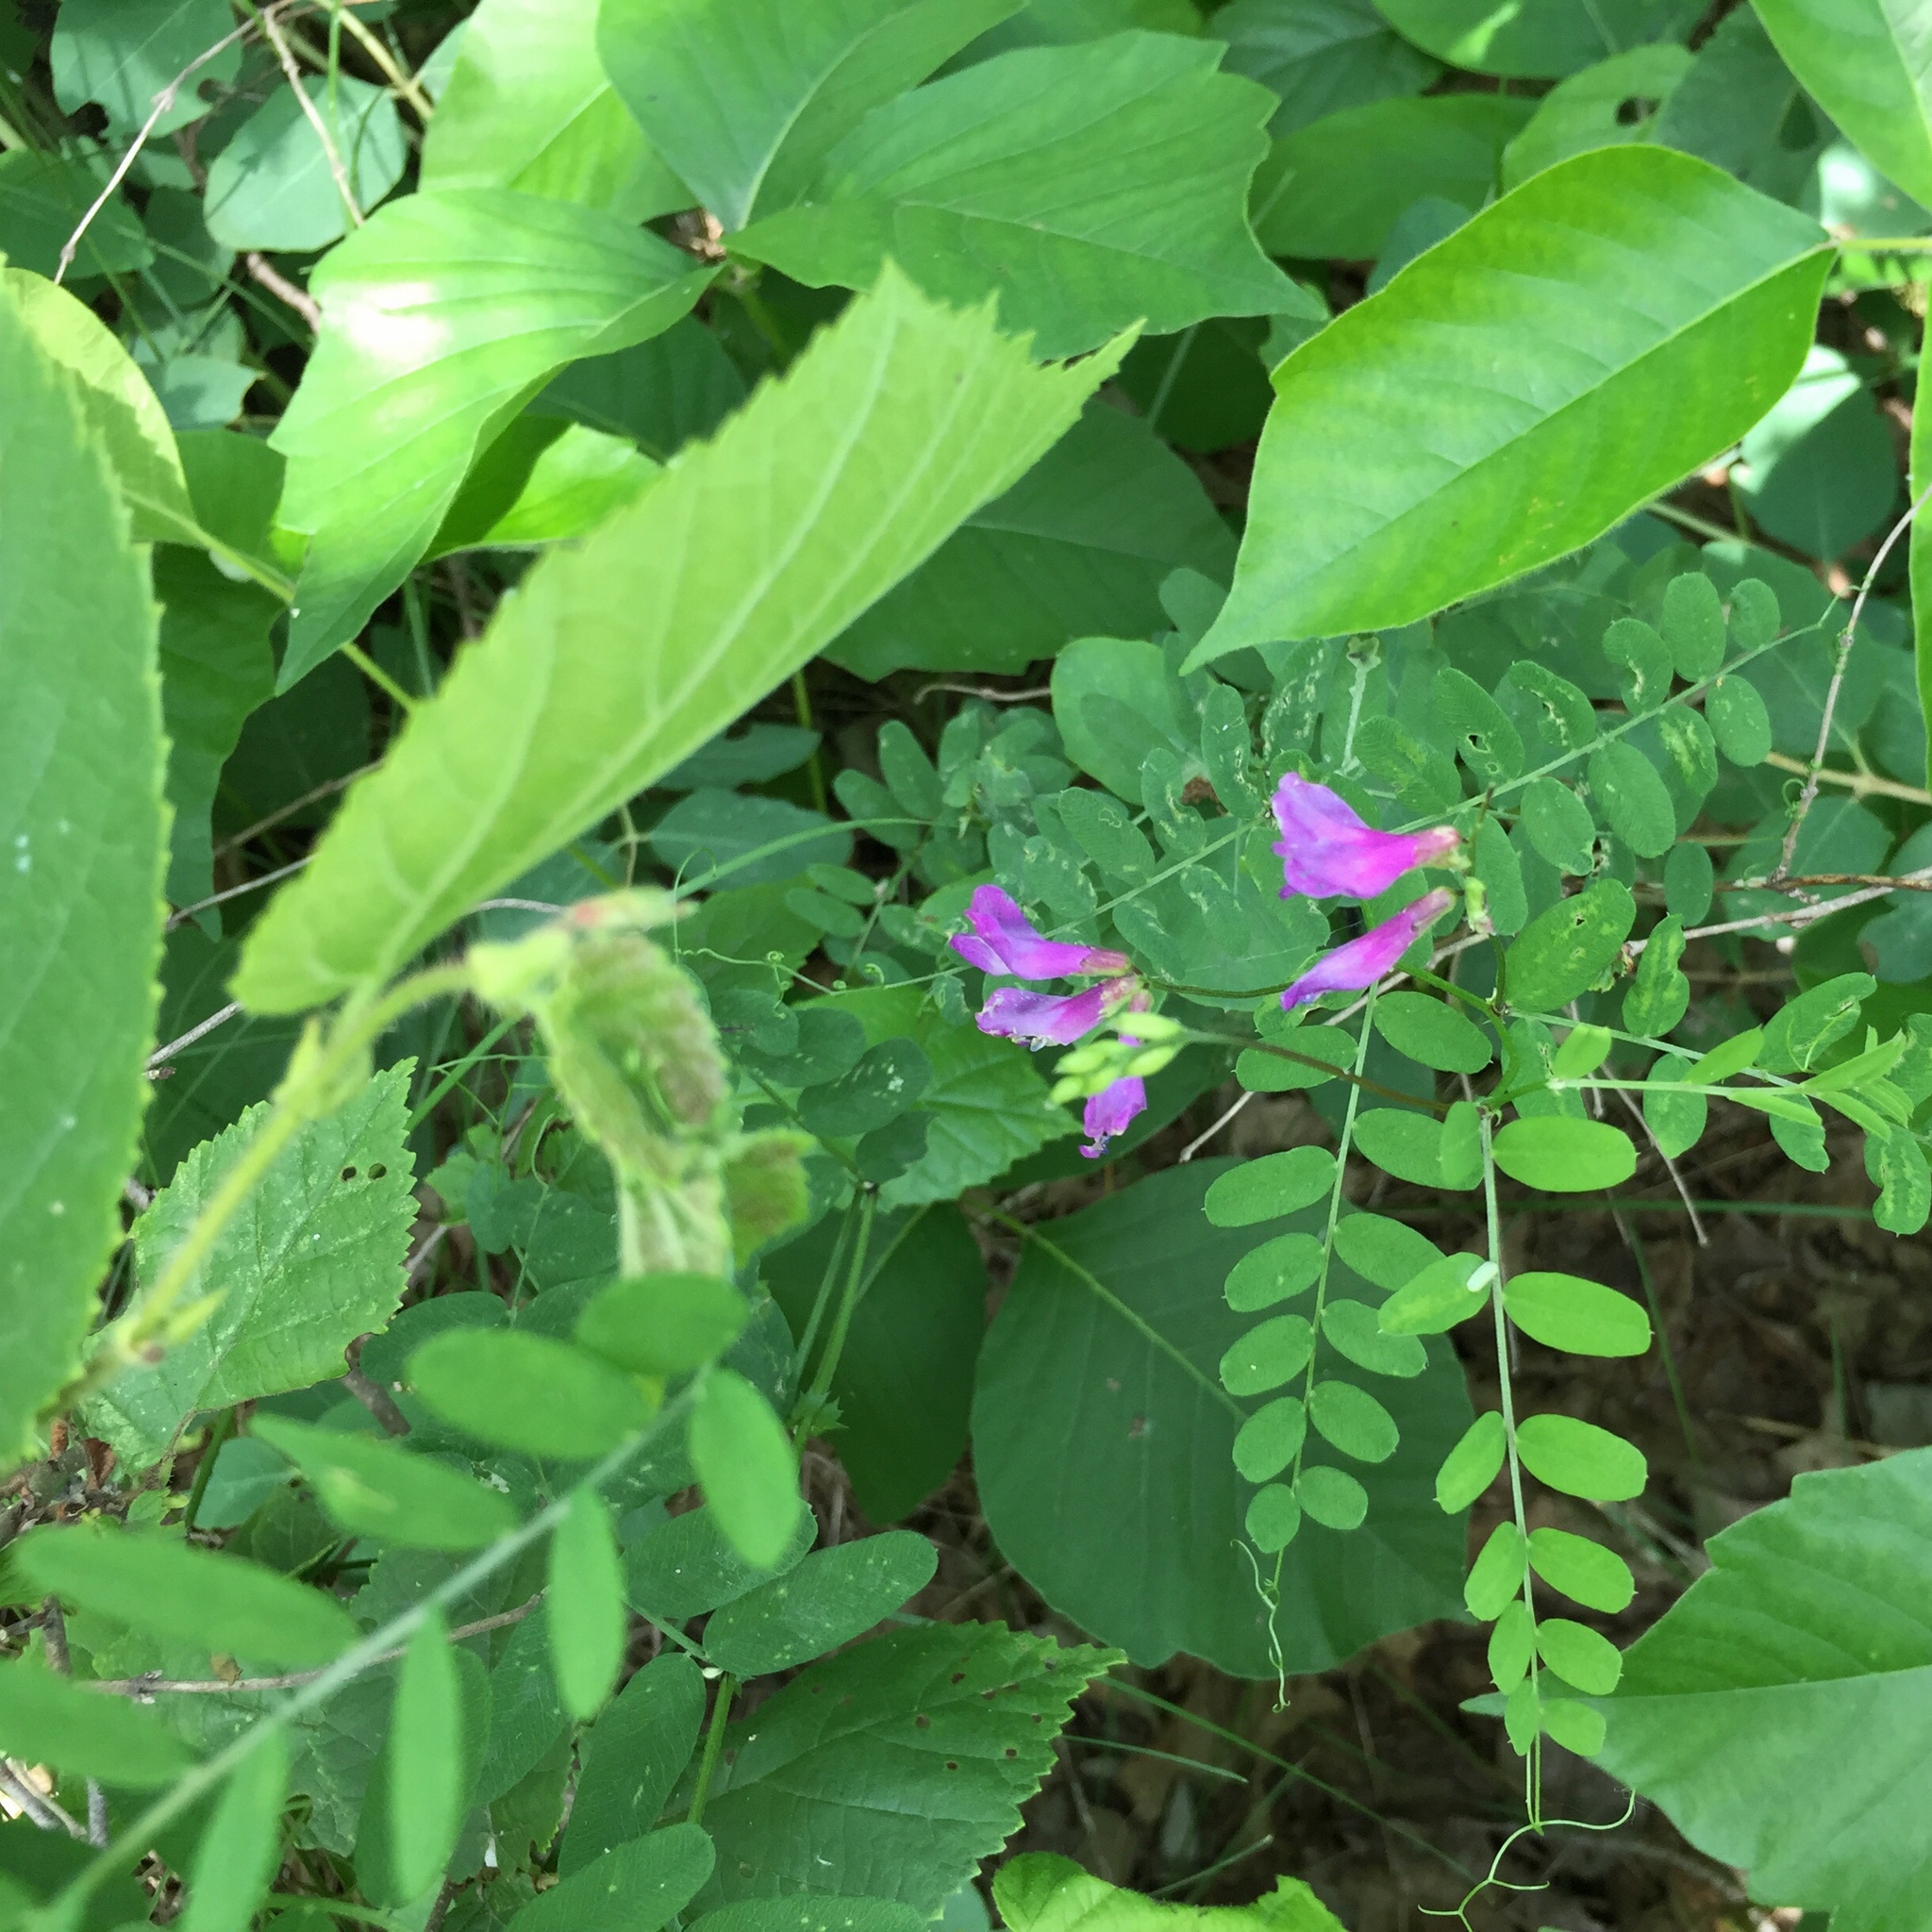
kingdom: Plantae
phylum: Tracheophyta
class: Magnoliopsida
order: Fabales
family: Fabaceae
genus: Vicia
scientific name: Vicia americana
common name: American vetch
